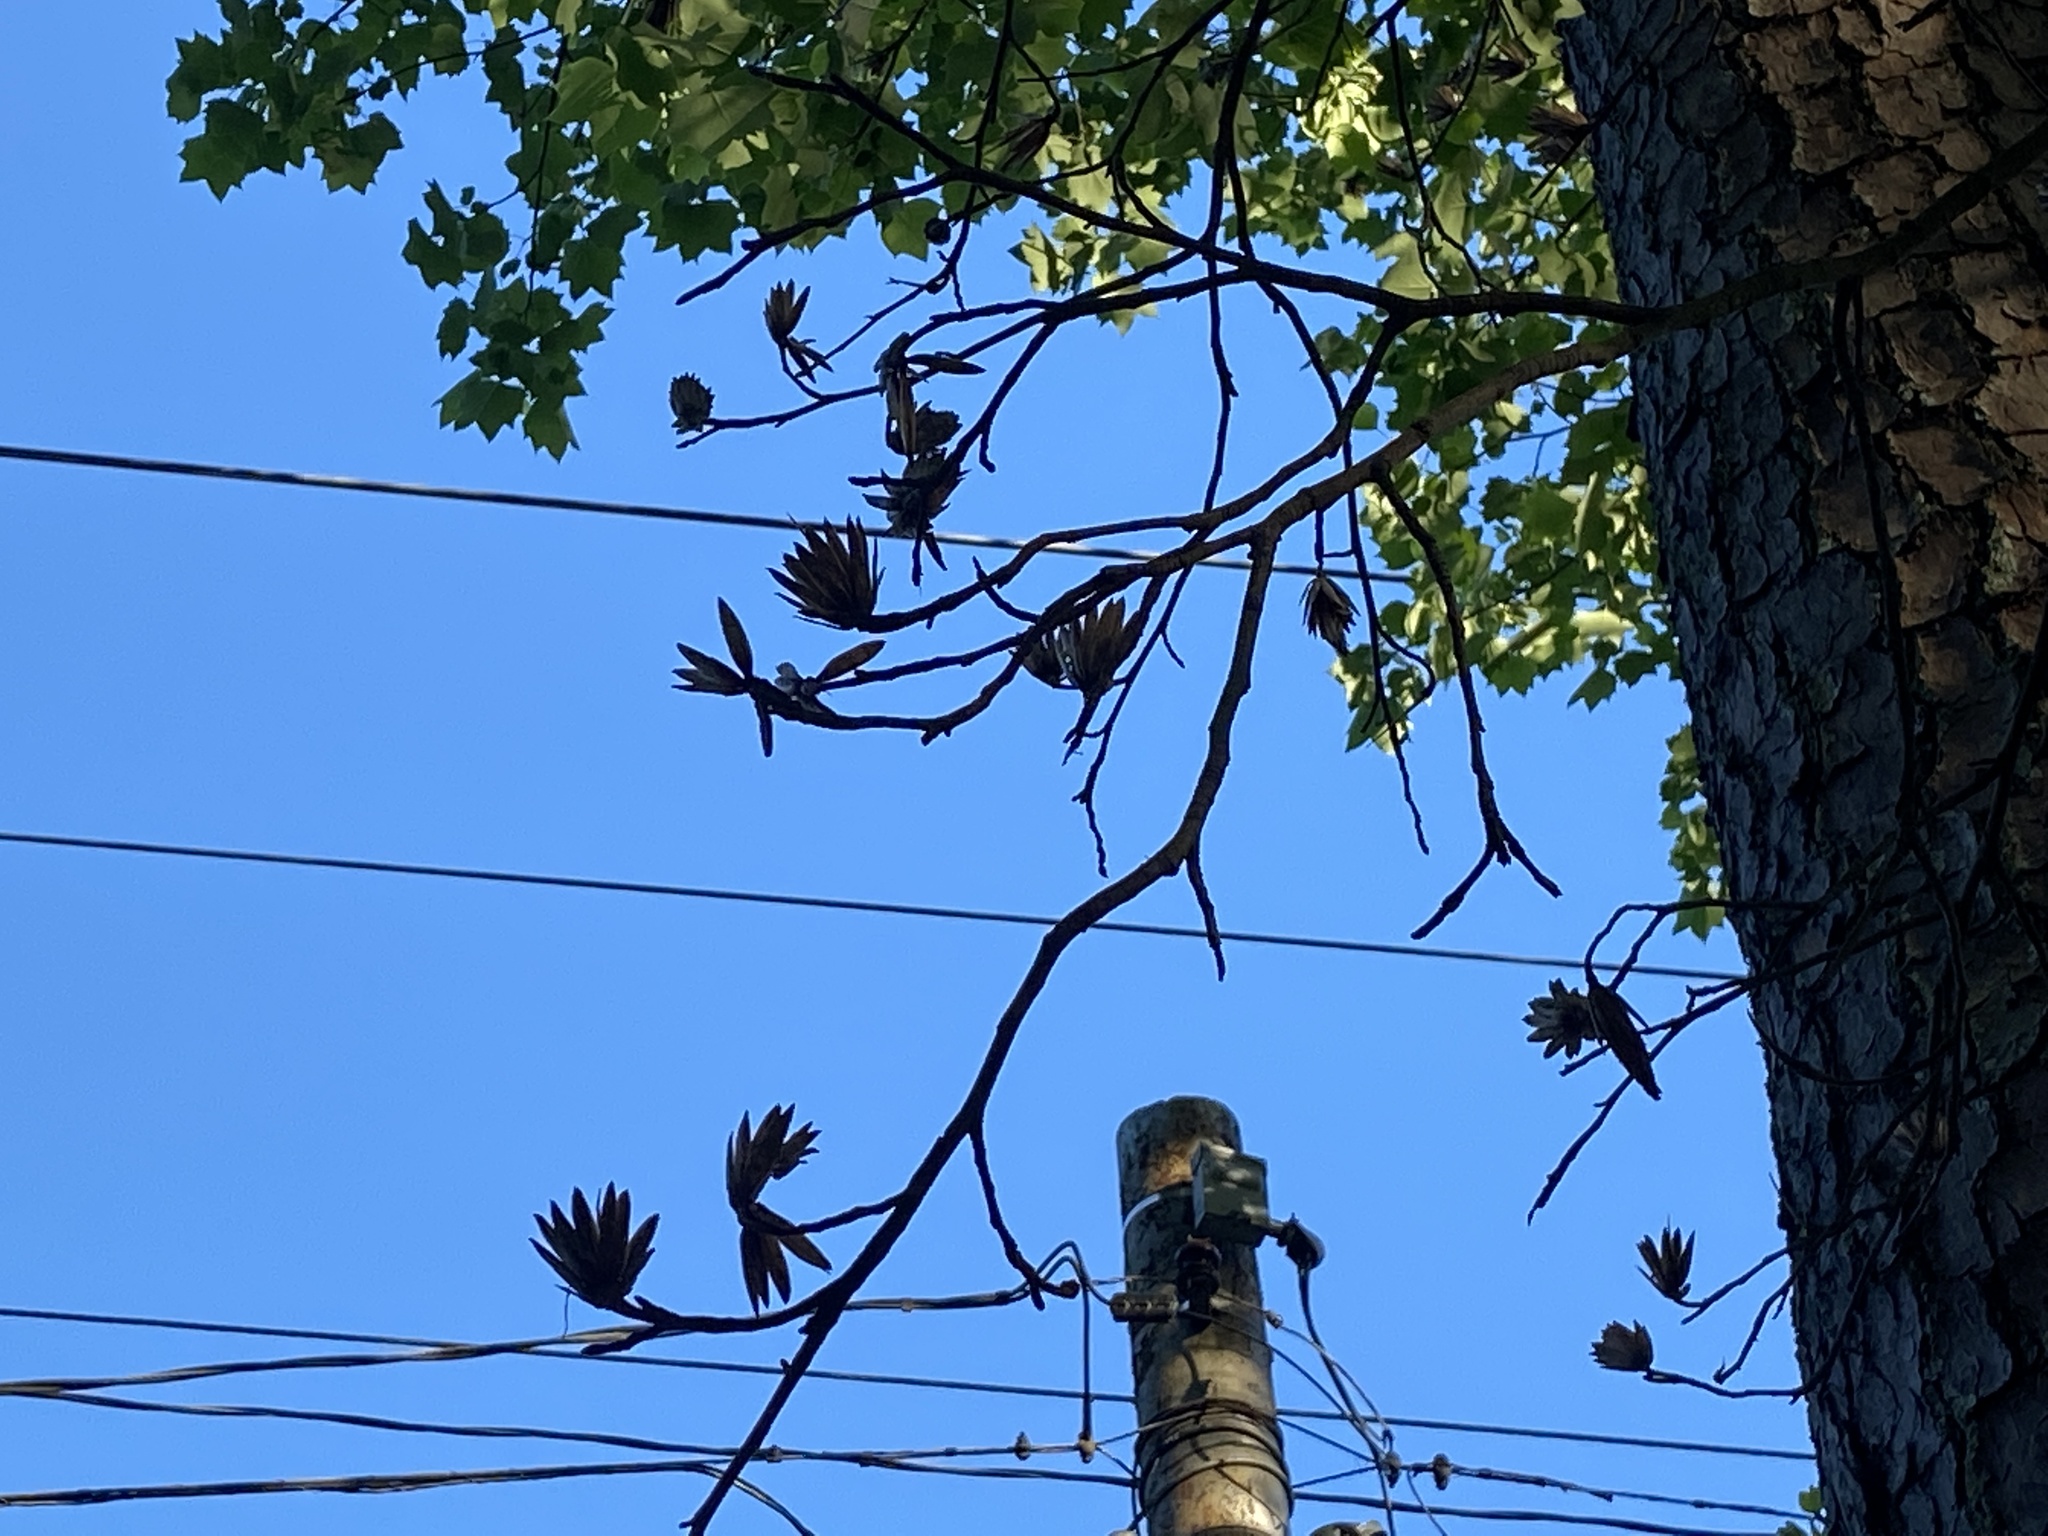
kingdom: Plantae
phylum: Tracheophyta
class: Magnoliopsida
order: Magnoliales
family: Magnoliaceae
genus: Liriodendron
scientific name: Liriodendron tulipifera
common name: Tulip tree
